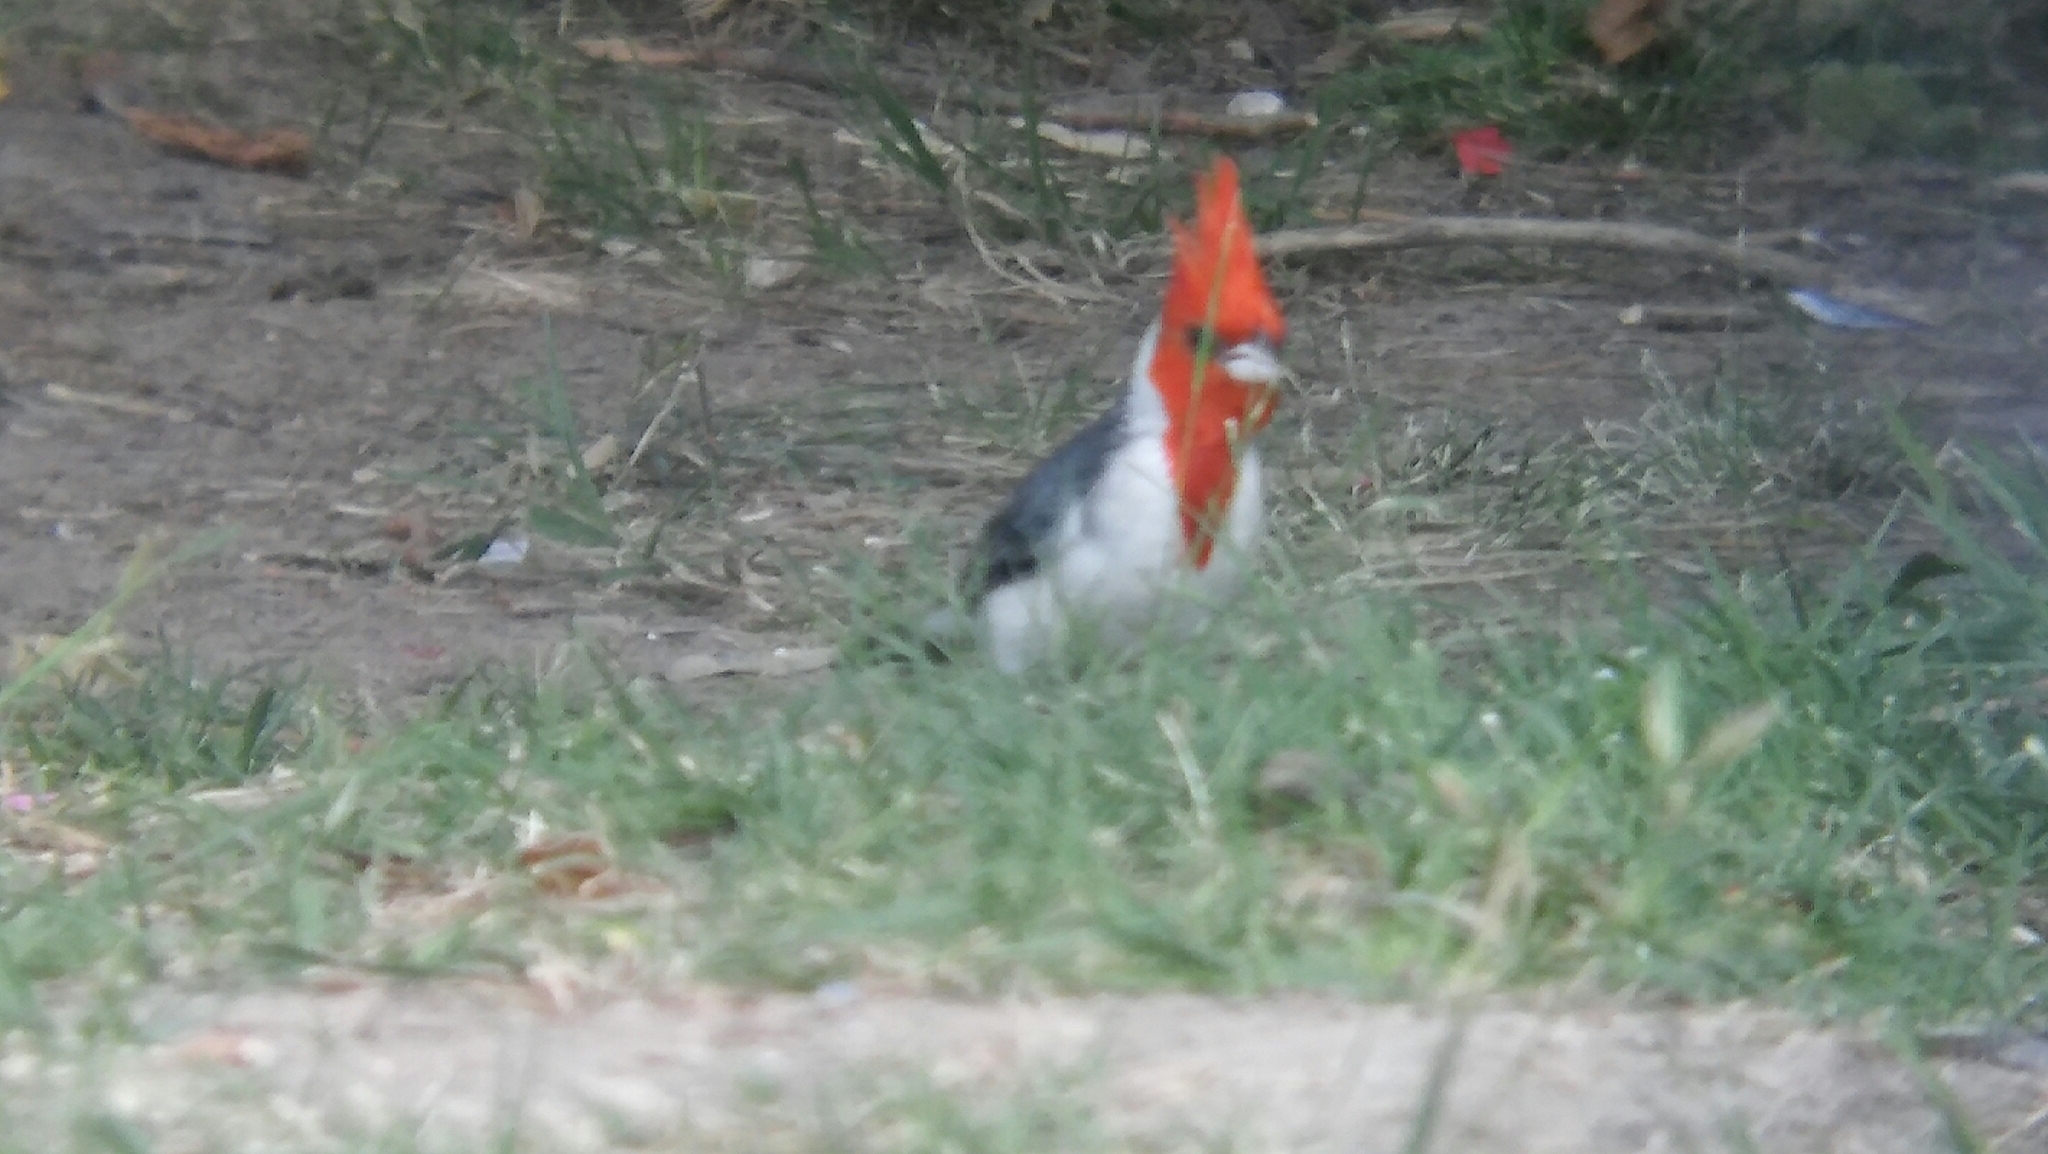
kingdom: Animalia
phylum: Chordata
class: Aves
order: Passeriformes
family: Thraupidae
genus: Paroaria
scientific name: Paroaria coronata
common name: Red-crested cardinal
